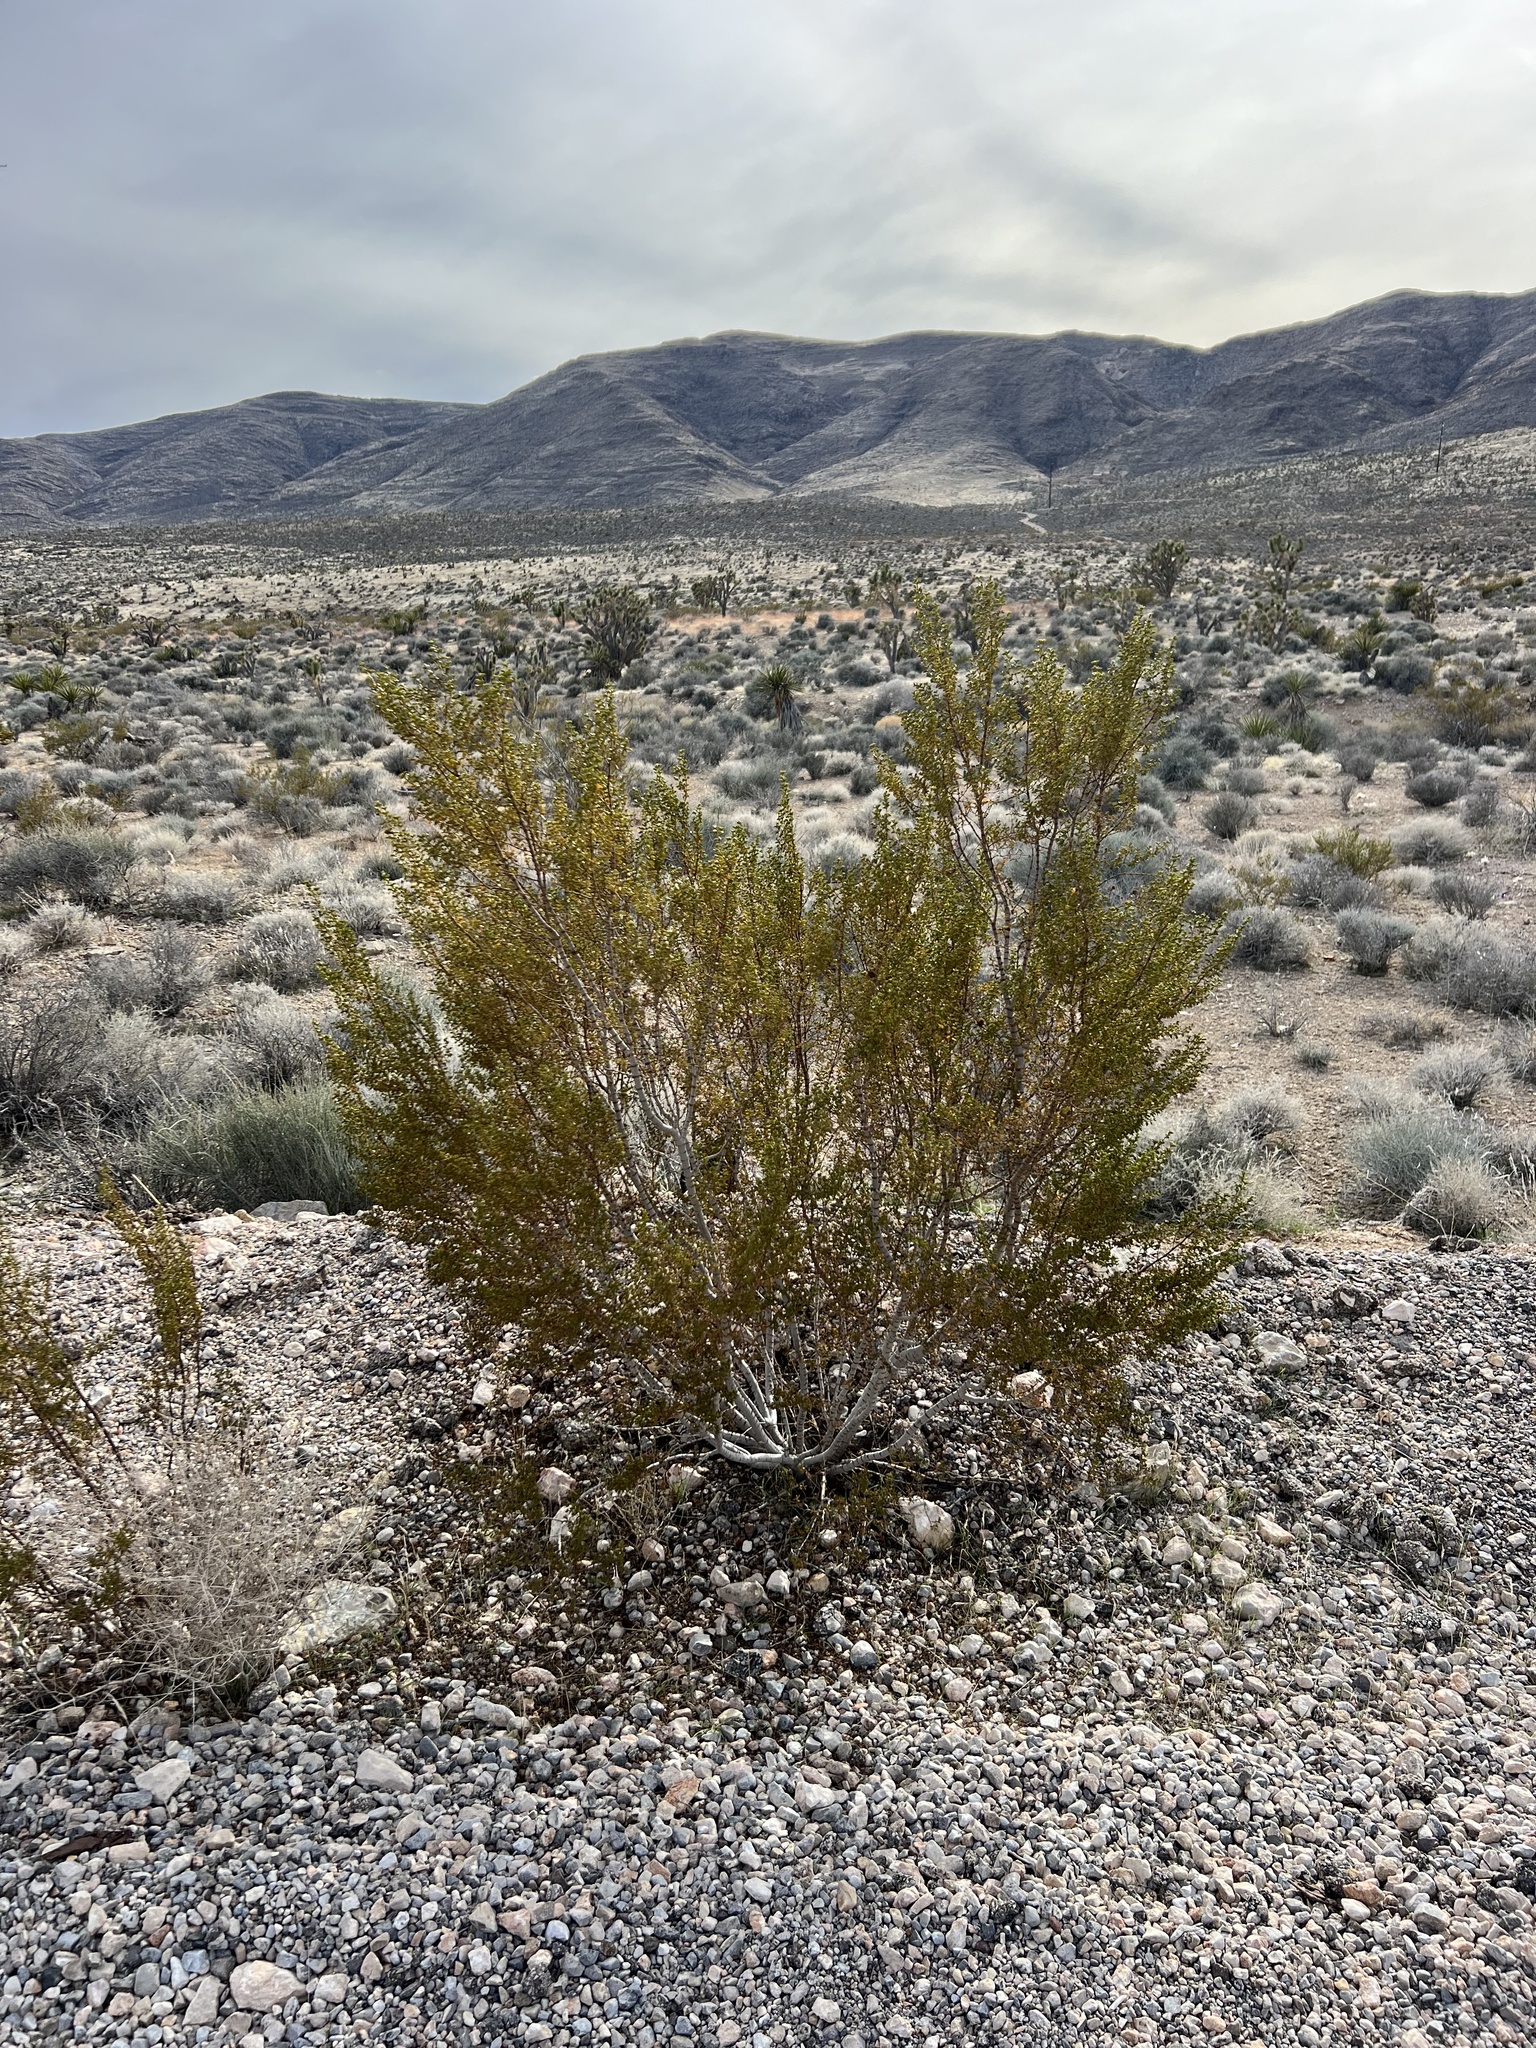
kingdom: Plantae
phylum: Tracheophyta
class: Magnoliopsida
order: Zygophyllales
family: Zygophyllaceae
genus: Larrea
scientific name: Larrea tridentata
